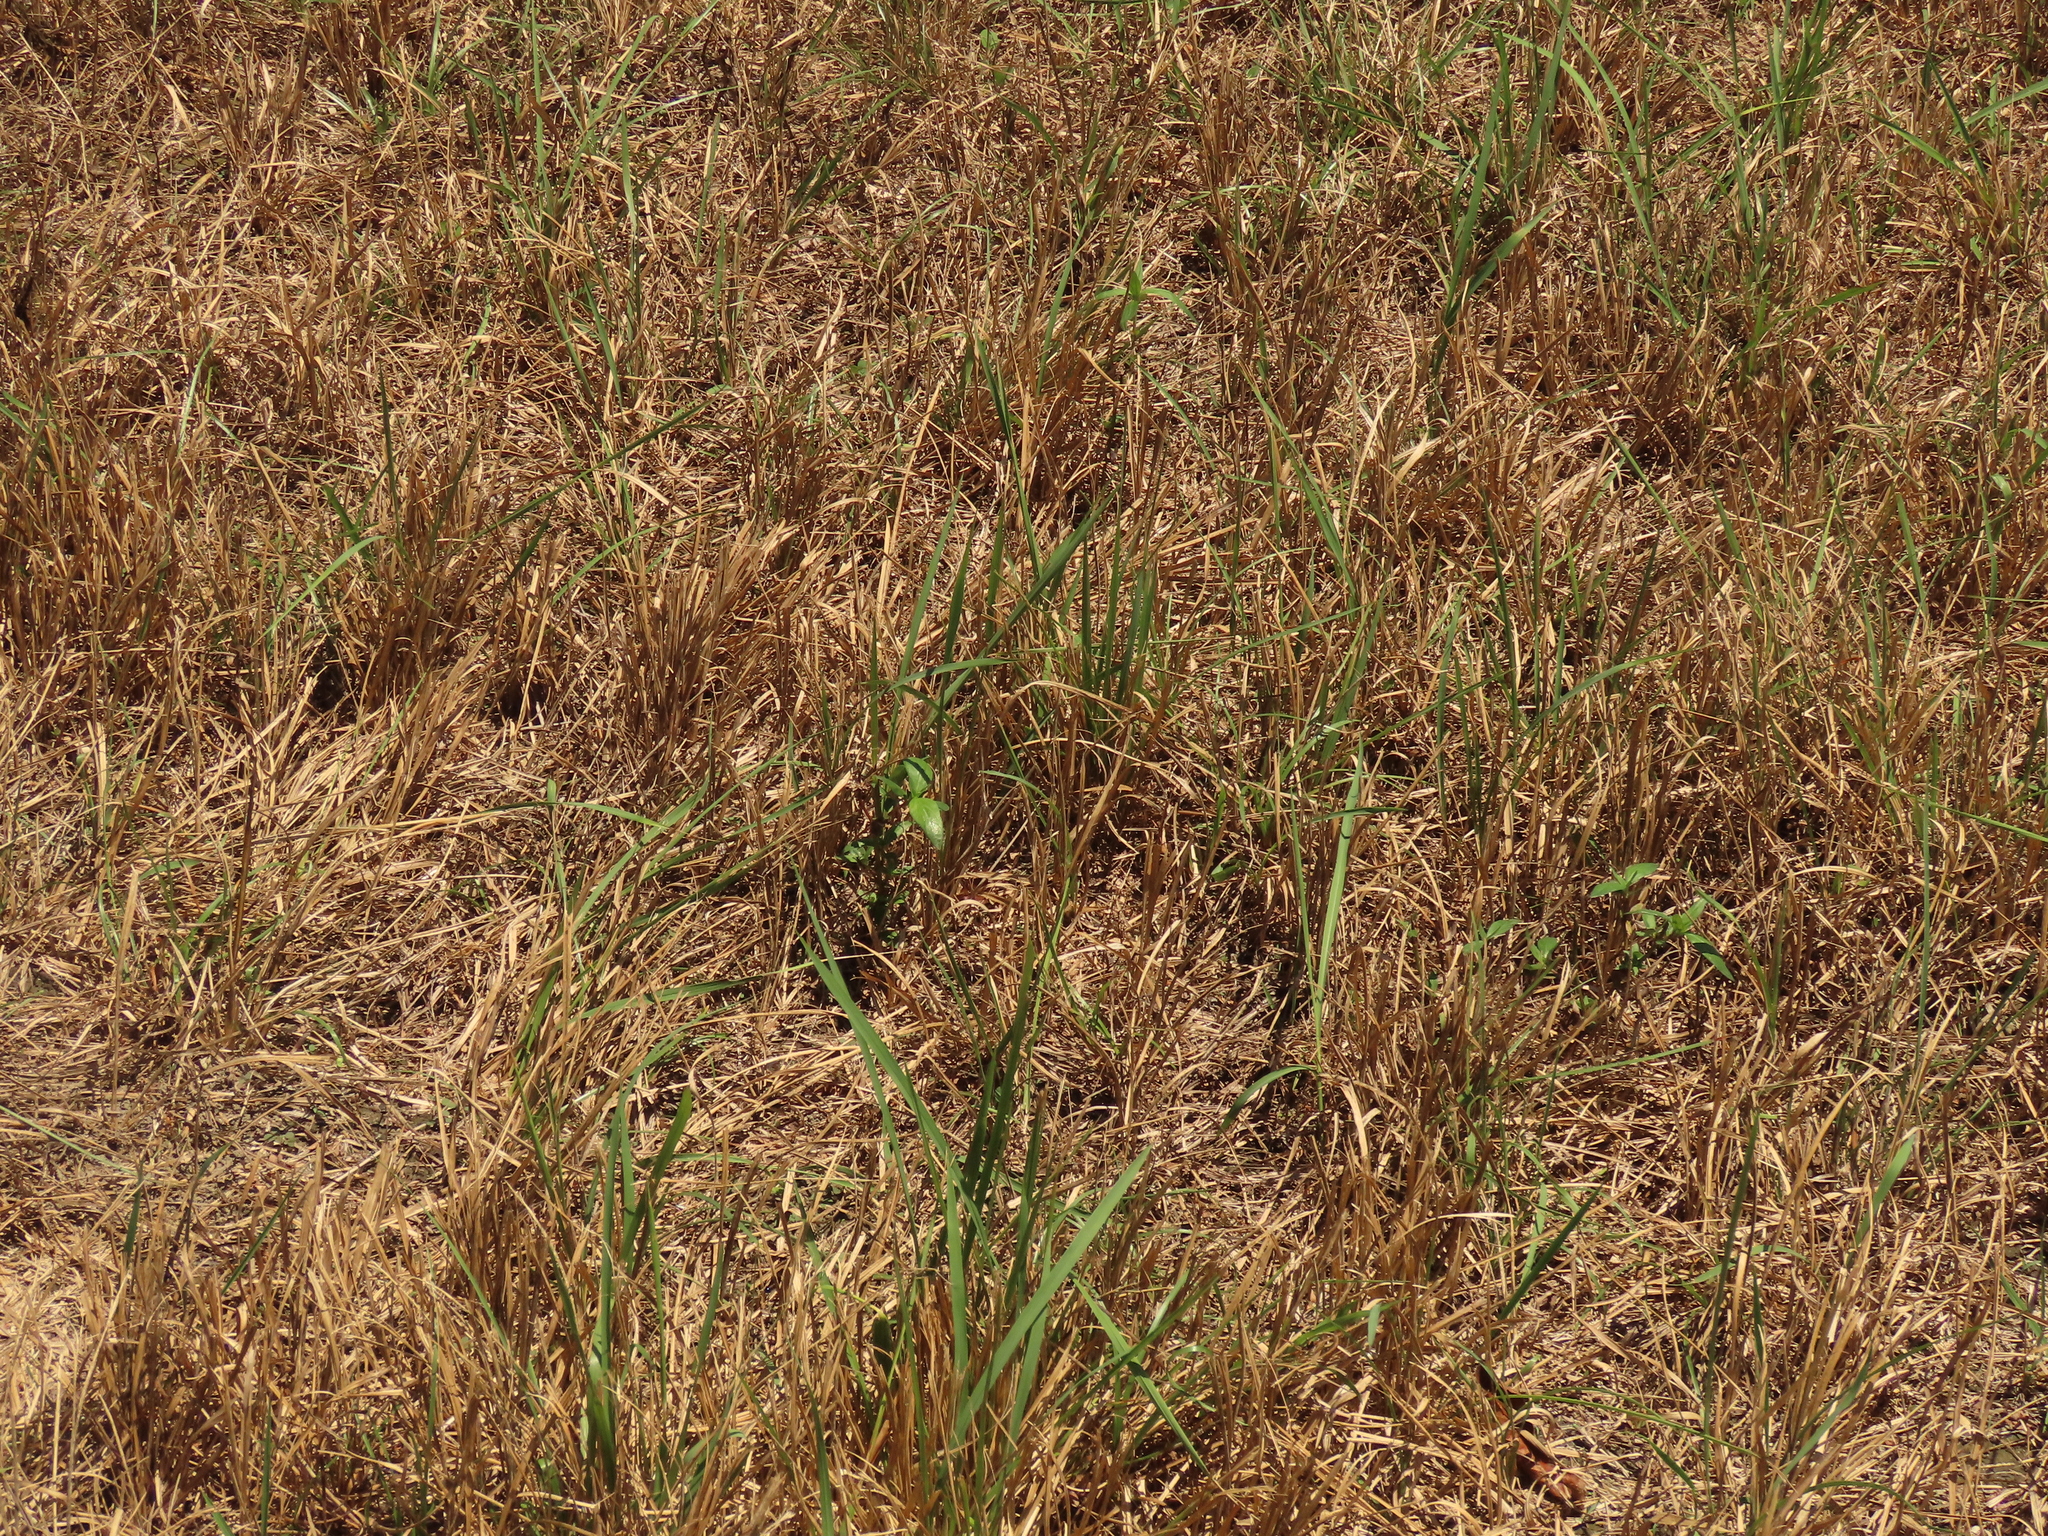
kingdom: Plantae
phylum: Tracheophyta
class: Magnoliopsida
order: Gentianales
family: Rubiaceae
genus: Spermacoce
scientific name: Spermacoce remota
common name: Woodland false buttonweed
